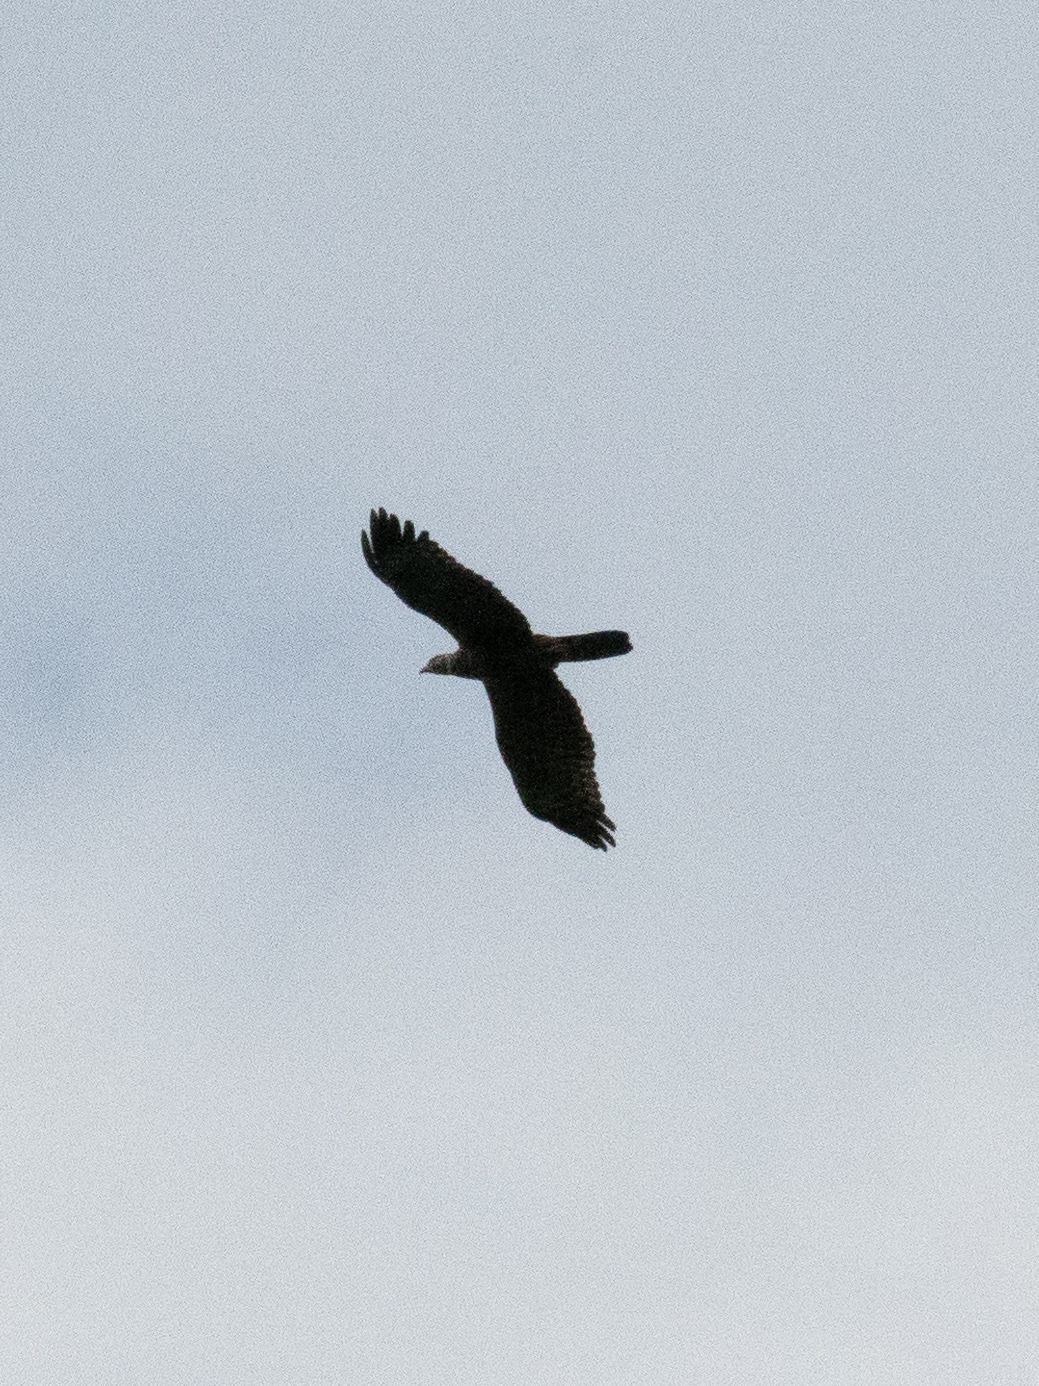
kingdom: Animalia
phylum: Chordata
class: Aves
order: Accipitriformes
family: Accipitridae
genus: Pernis
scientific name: Pernis ptilorhynchus
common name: Crested honey buzzard
